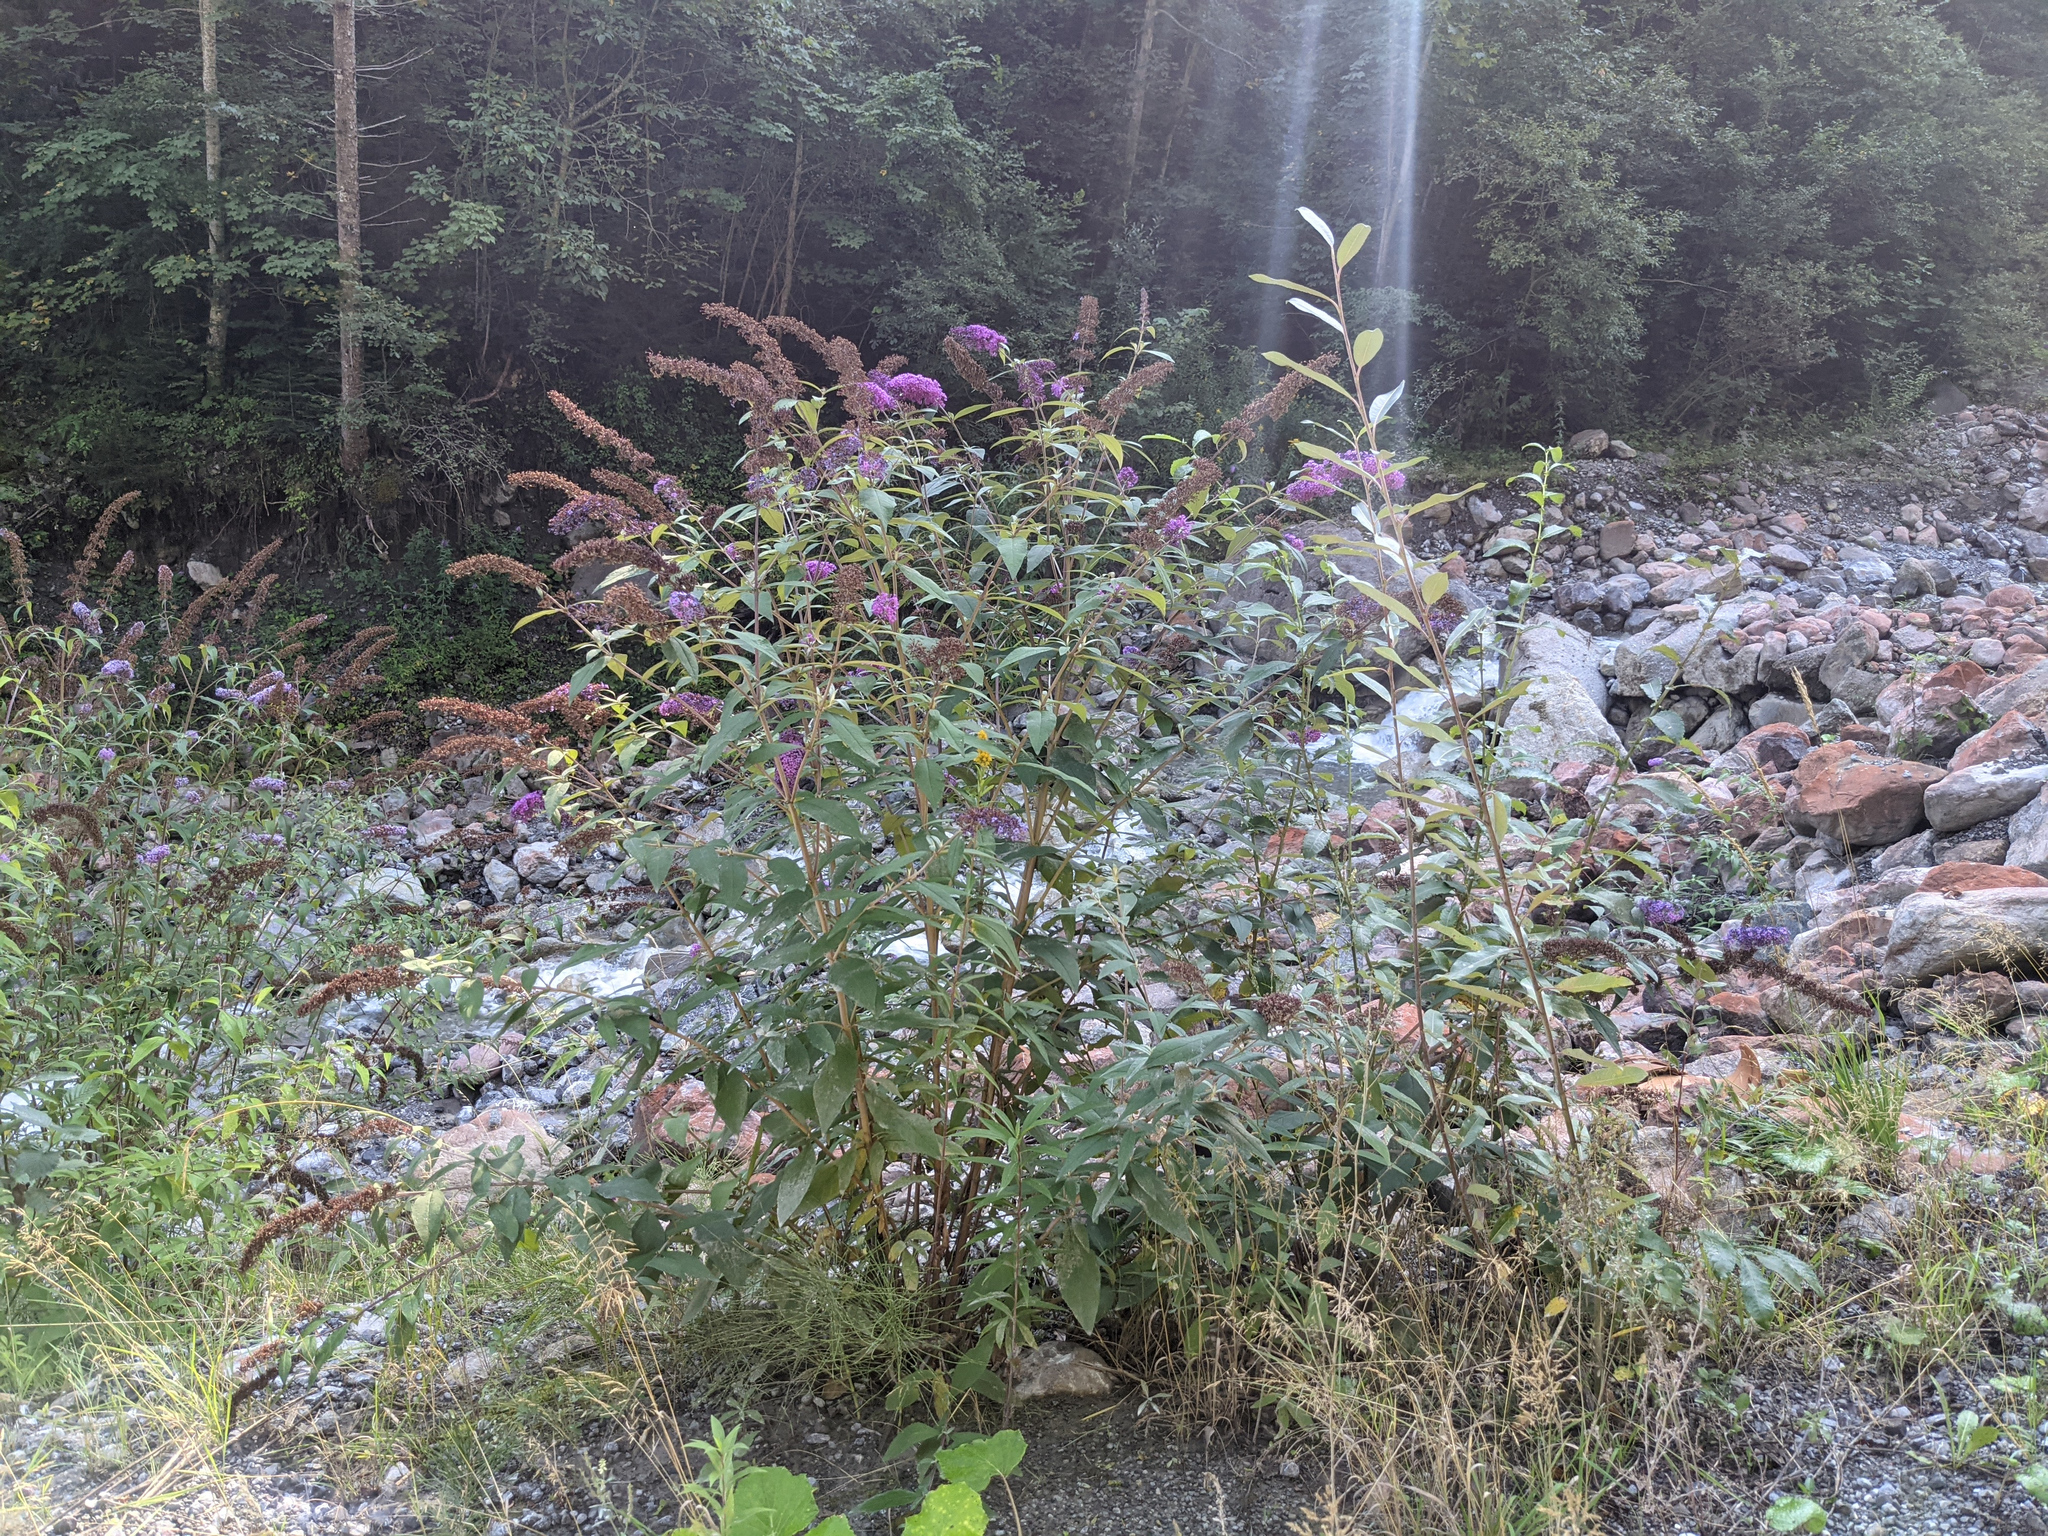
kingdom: Plantae
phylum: Tracheophyta
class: Magnoliopsida
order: Lamiales
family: Scrophulariaceae
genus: Buddleja
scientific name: Buddleja davidii
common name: Butterfly-bush
